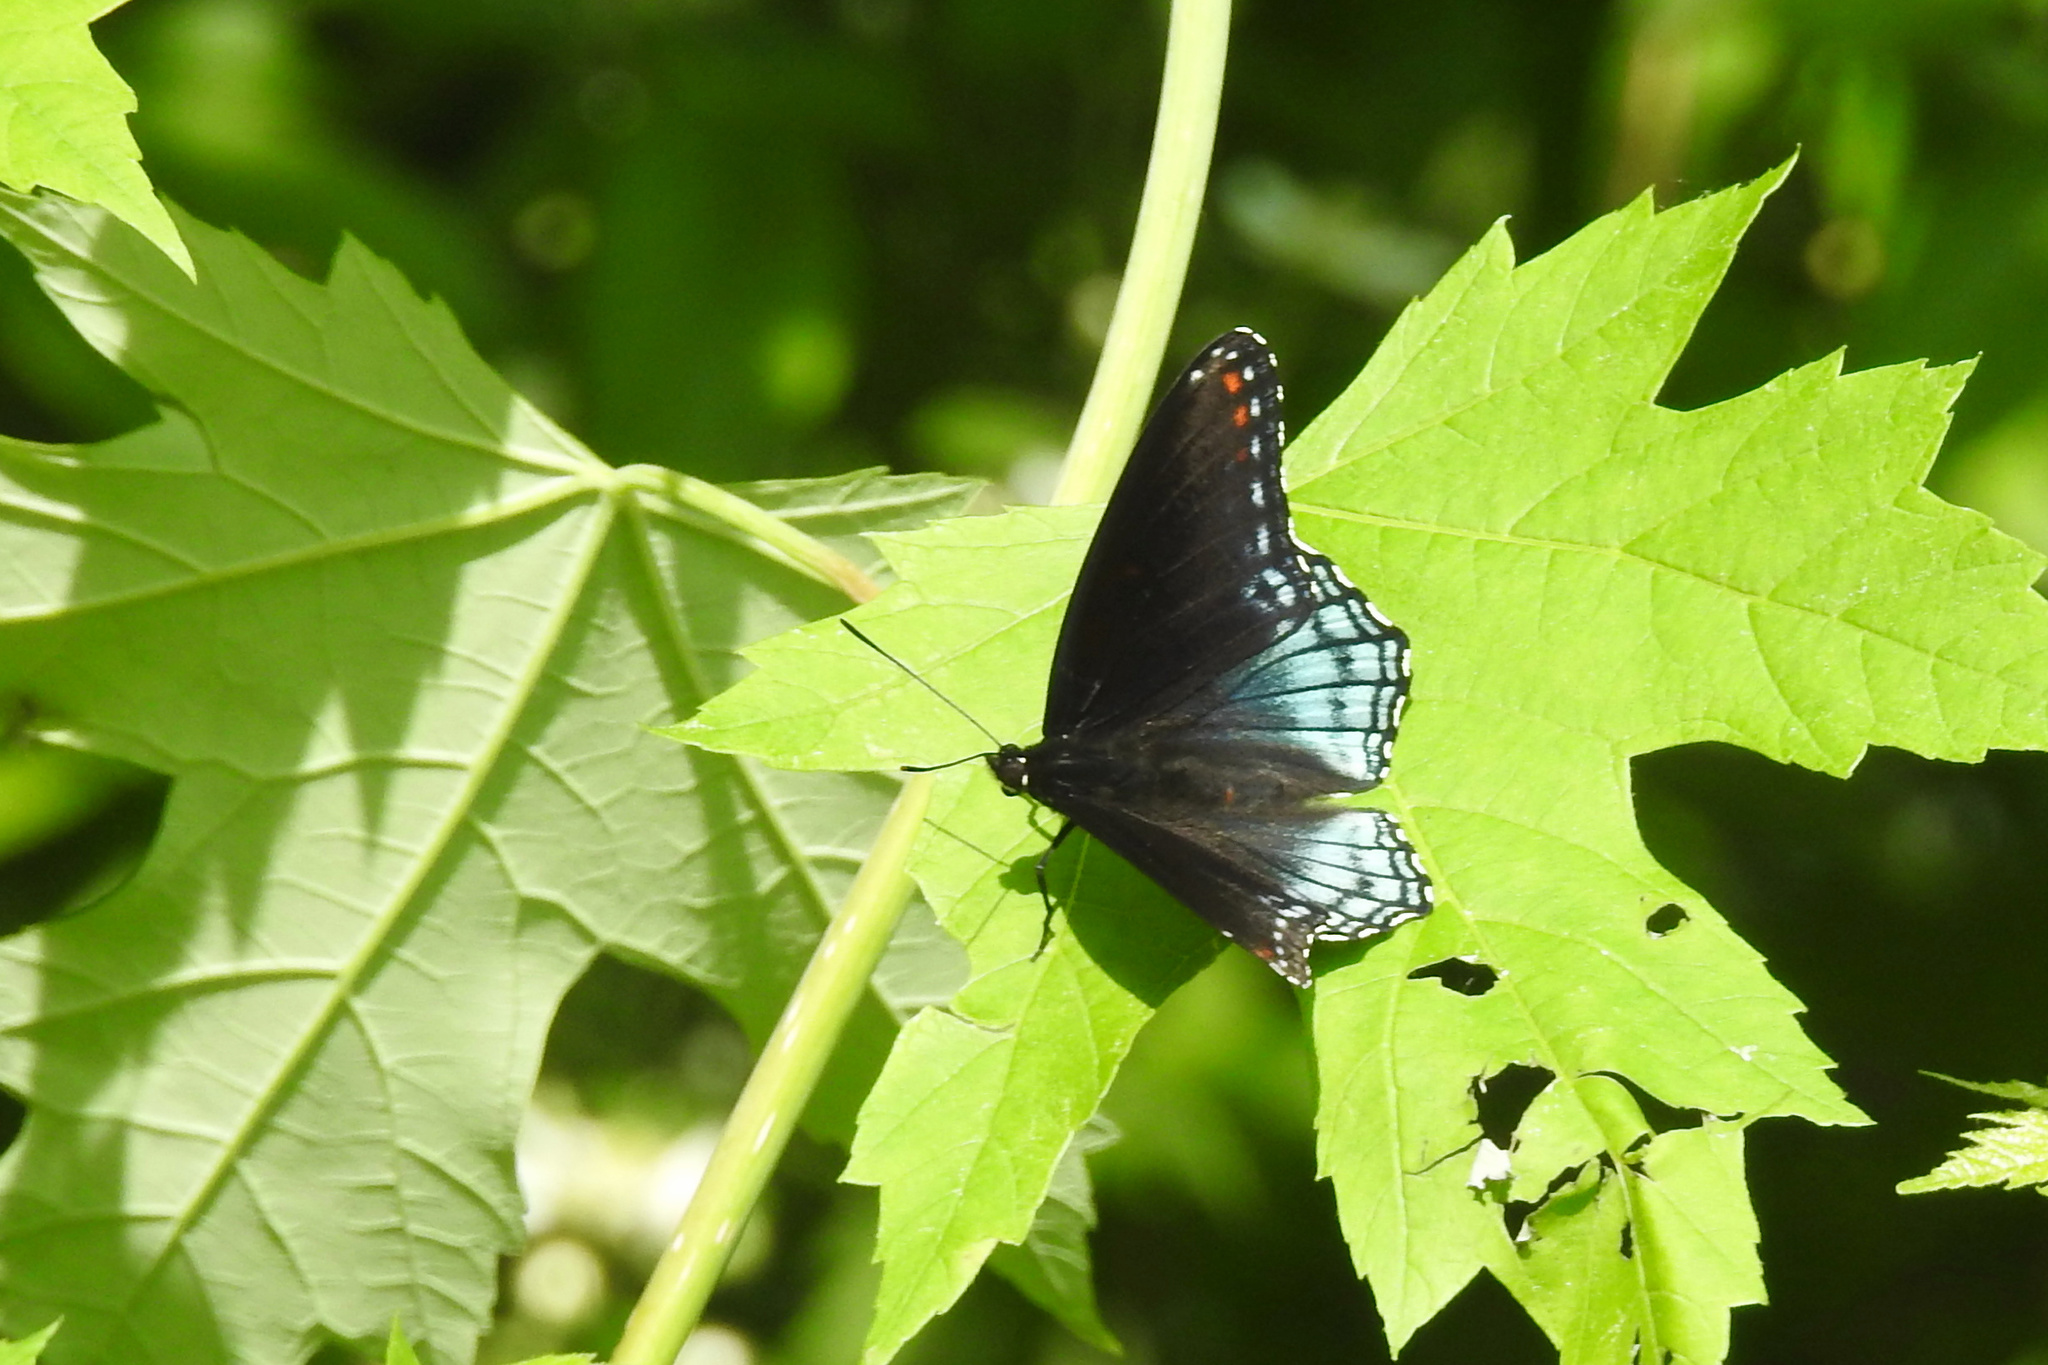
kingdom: Animalia
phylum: Arthropoda
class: Insecta
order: Lepidoptera
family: Nymphalidae
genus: Limenitis
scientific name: Limenitis astyanax
